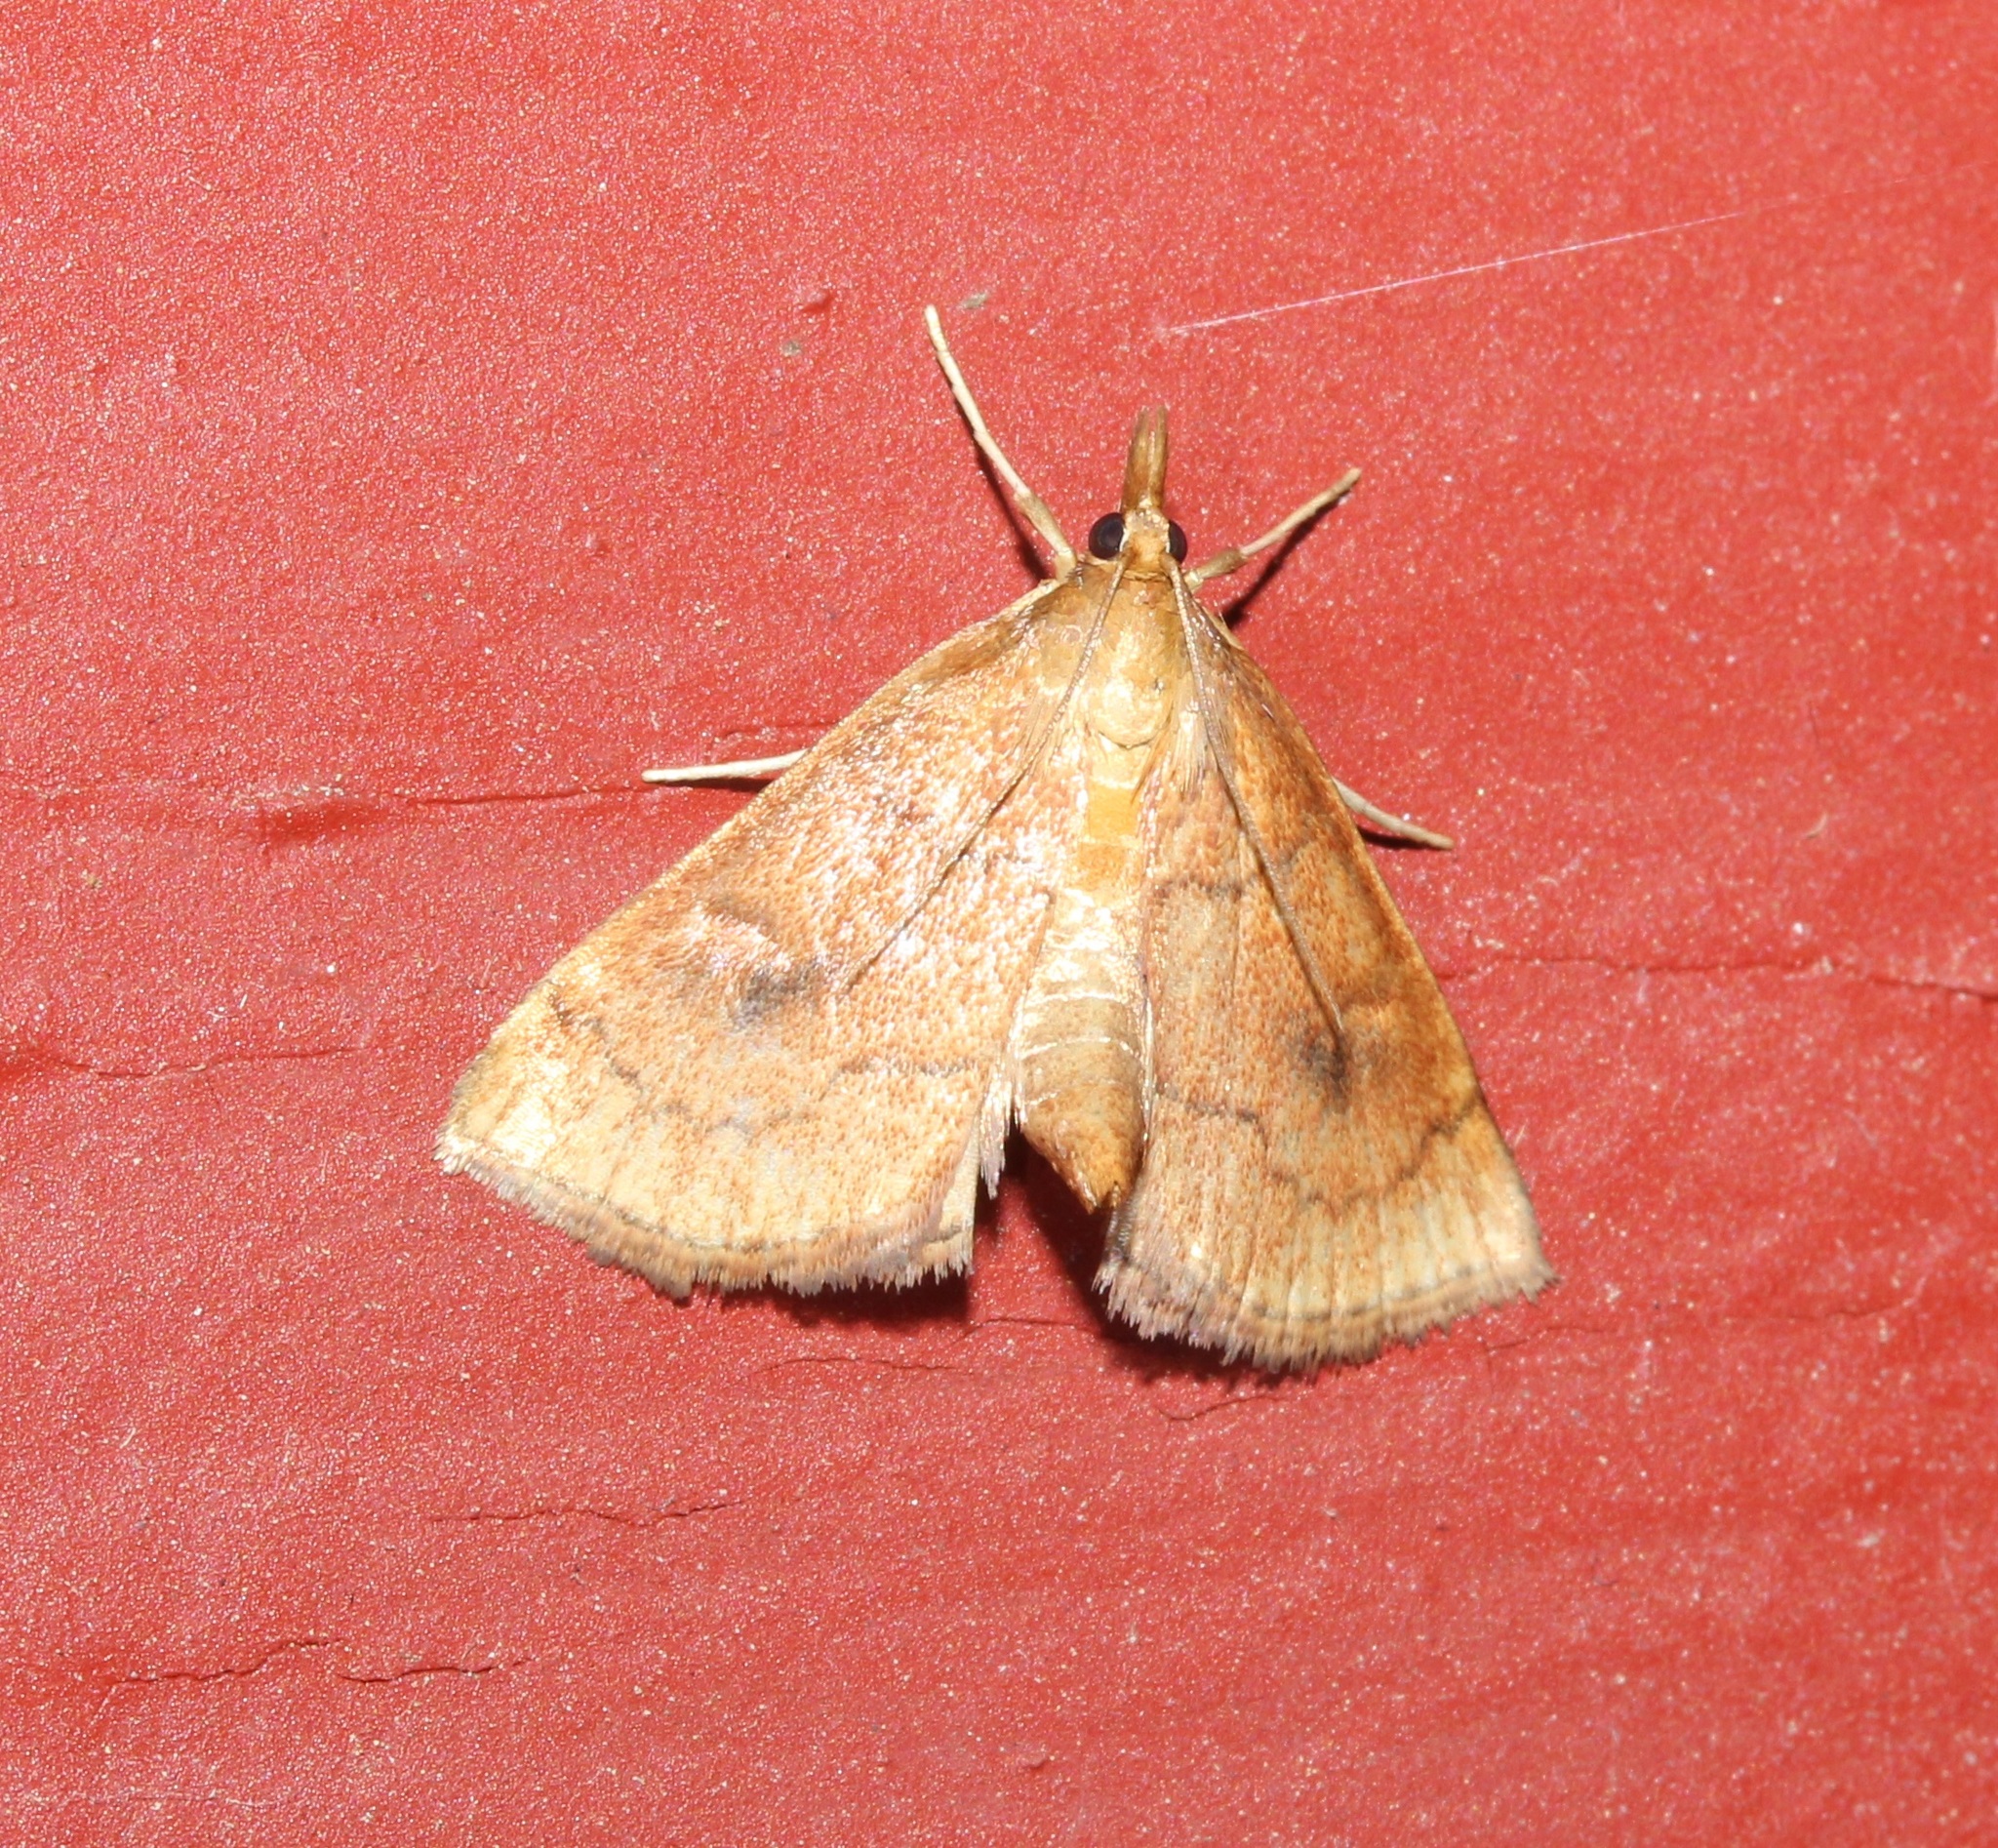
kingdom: Animalia
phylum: Arthropoda
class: Insecta
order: Lepidoptera
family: Crambidae
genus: Fumibotys
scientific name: Fumibotys fumalis
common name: Mint root borer moth
